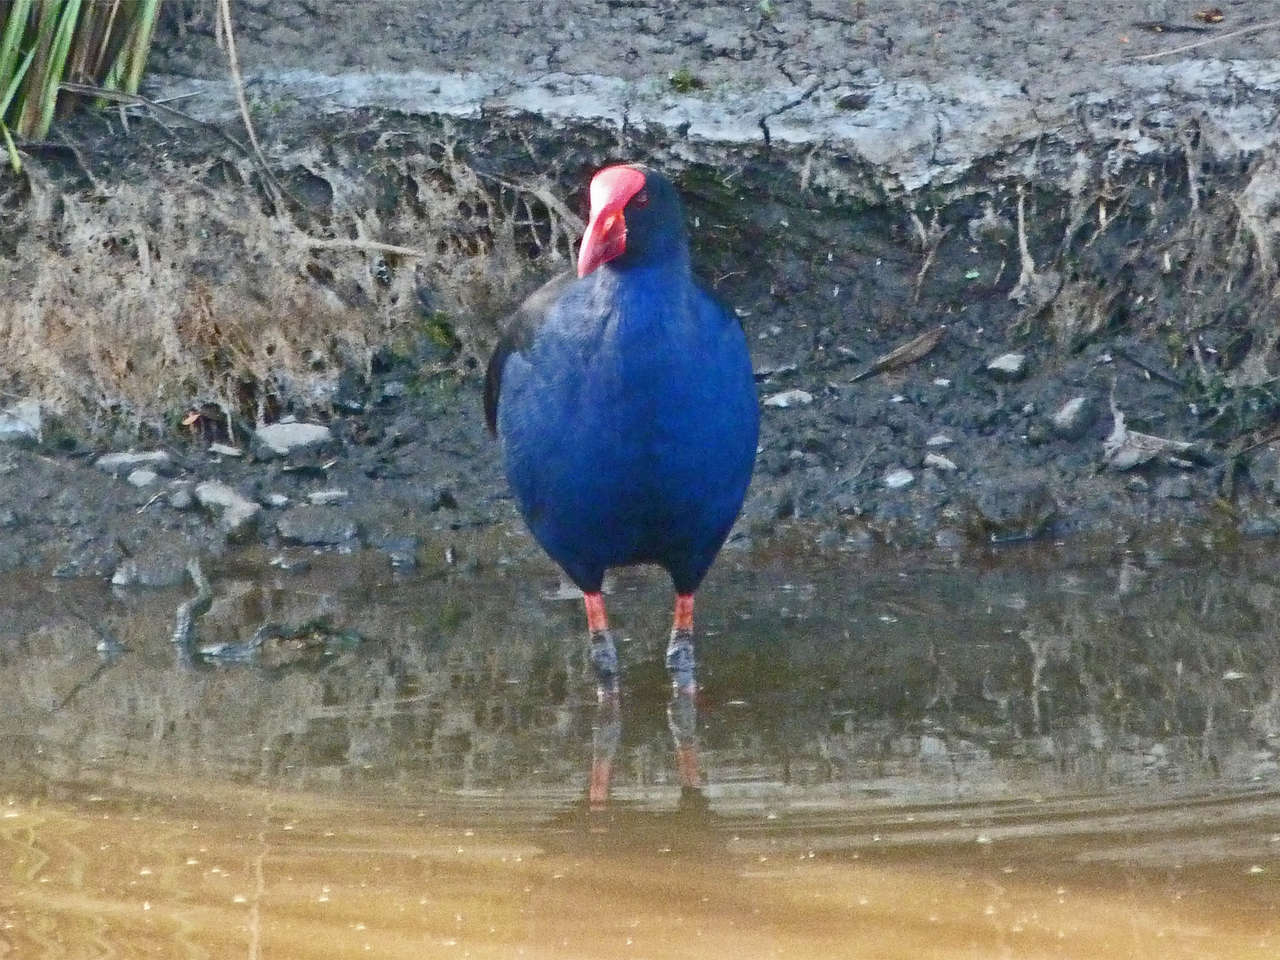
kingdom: Animalia
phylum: Chordata
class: Aves
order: Gruiformes
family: Rallidae
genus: Porphyrio
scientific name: Porphyrio melanotus
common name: Australasian swamphen
